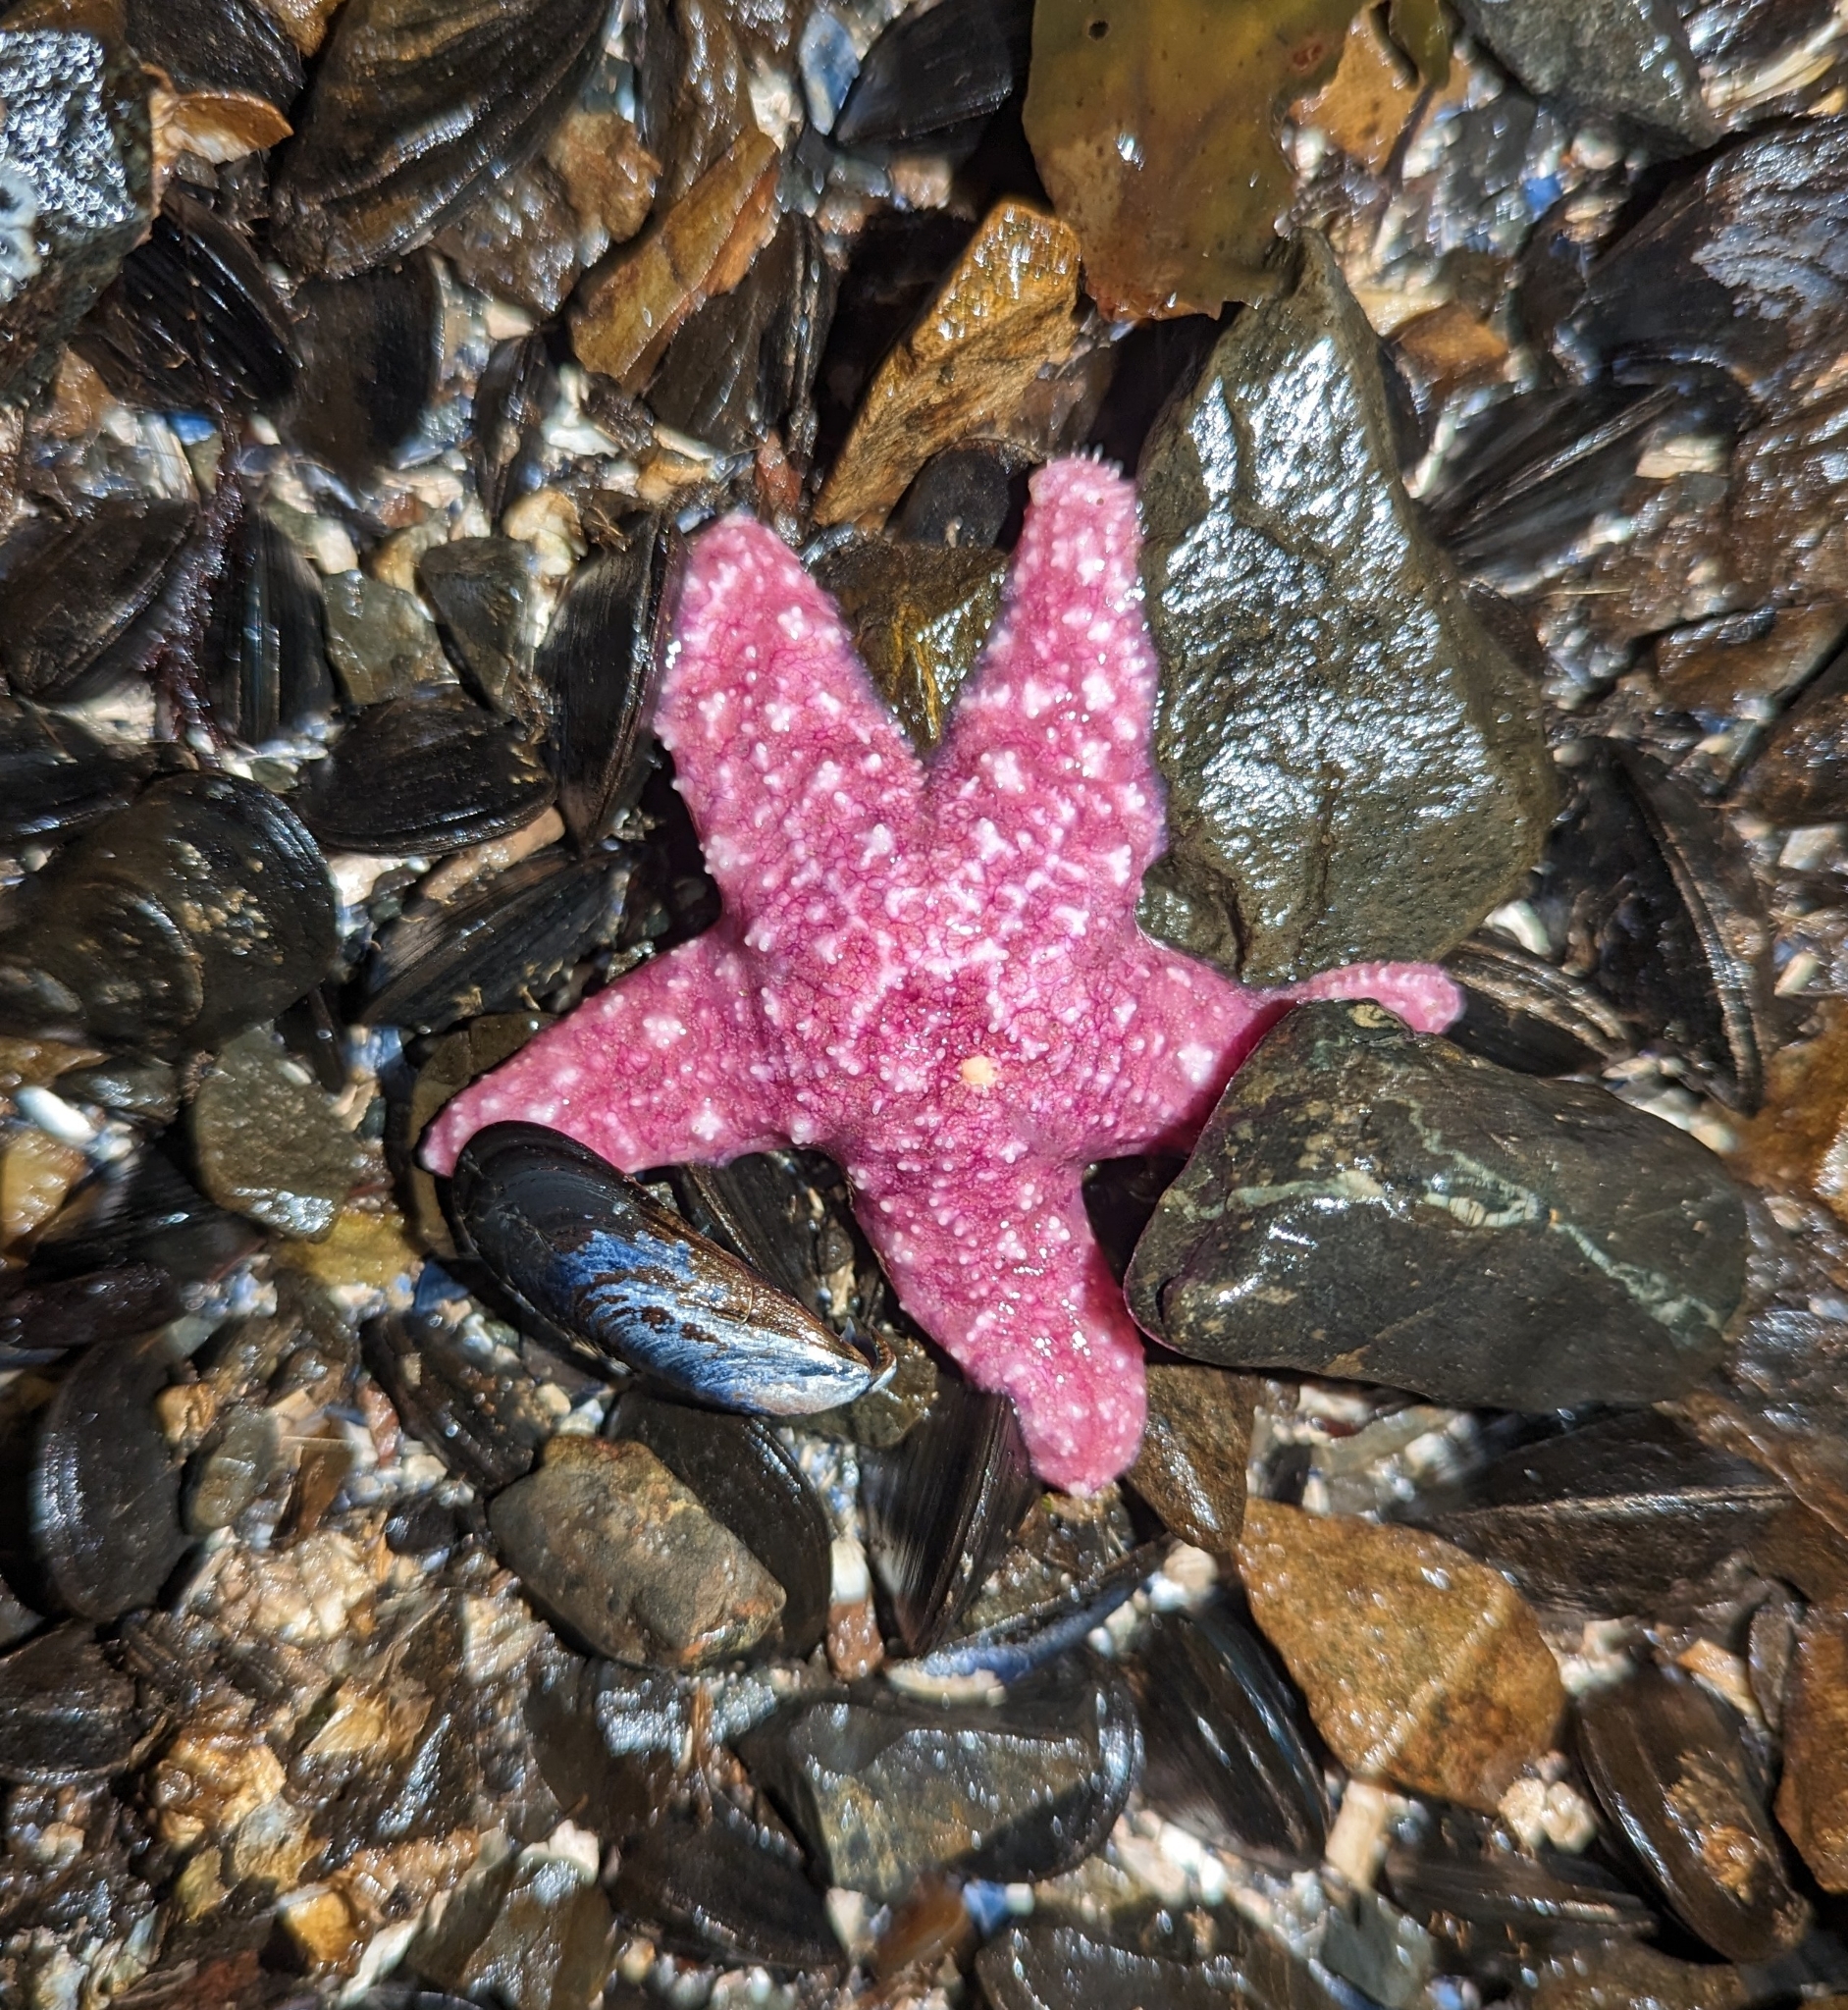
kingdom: Animalia
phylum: Echinodermata
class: Asteroidea
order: Forcipulatida
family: Asteriidae
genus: Pisaster
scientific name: Pisaster ochraceus
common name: Ochre stars
